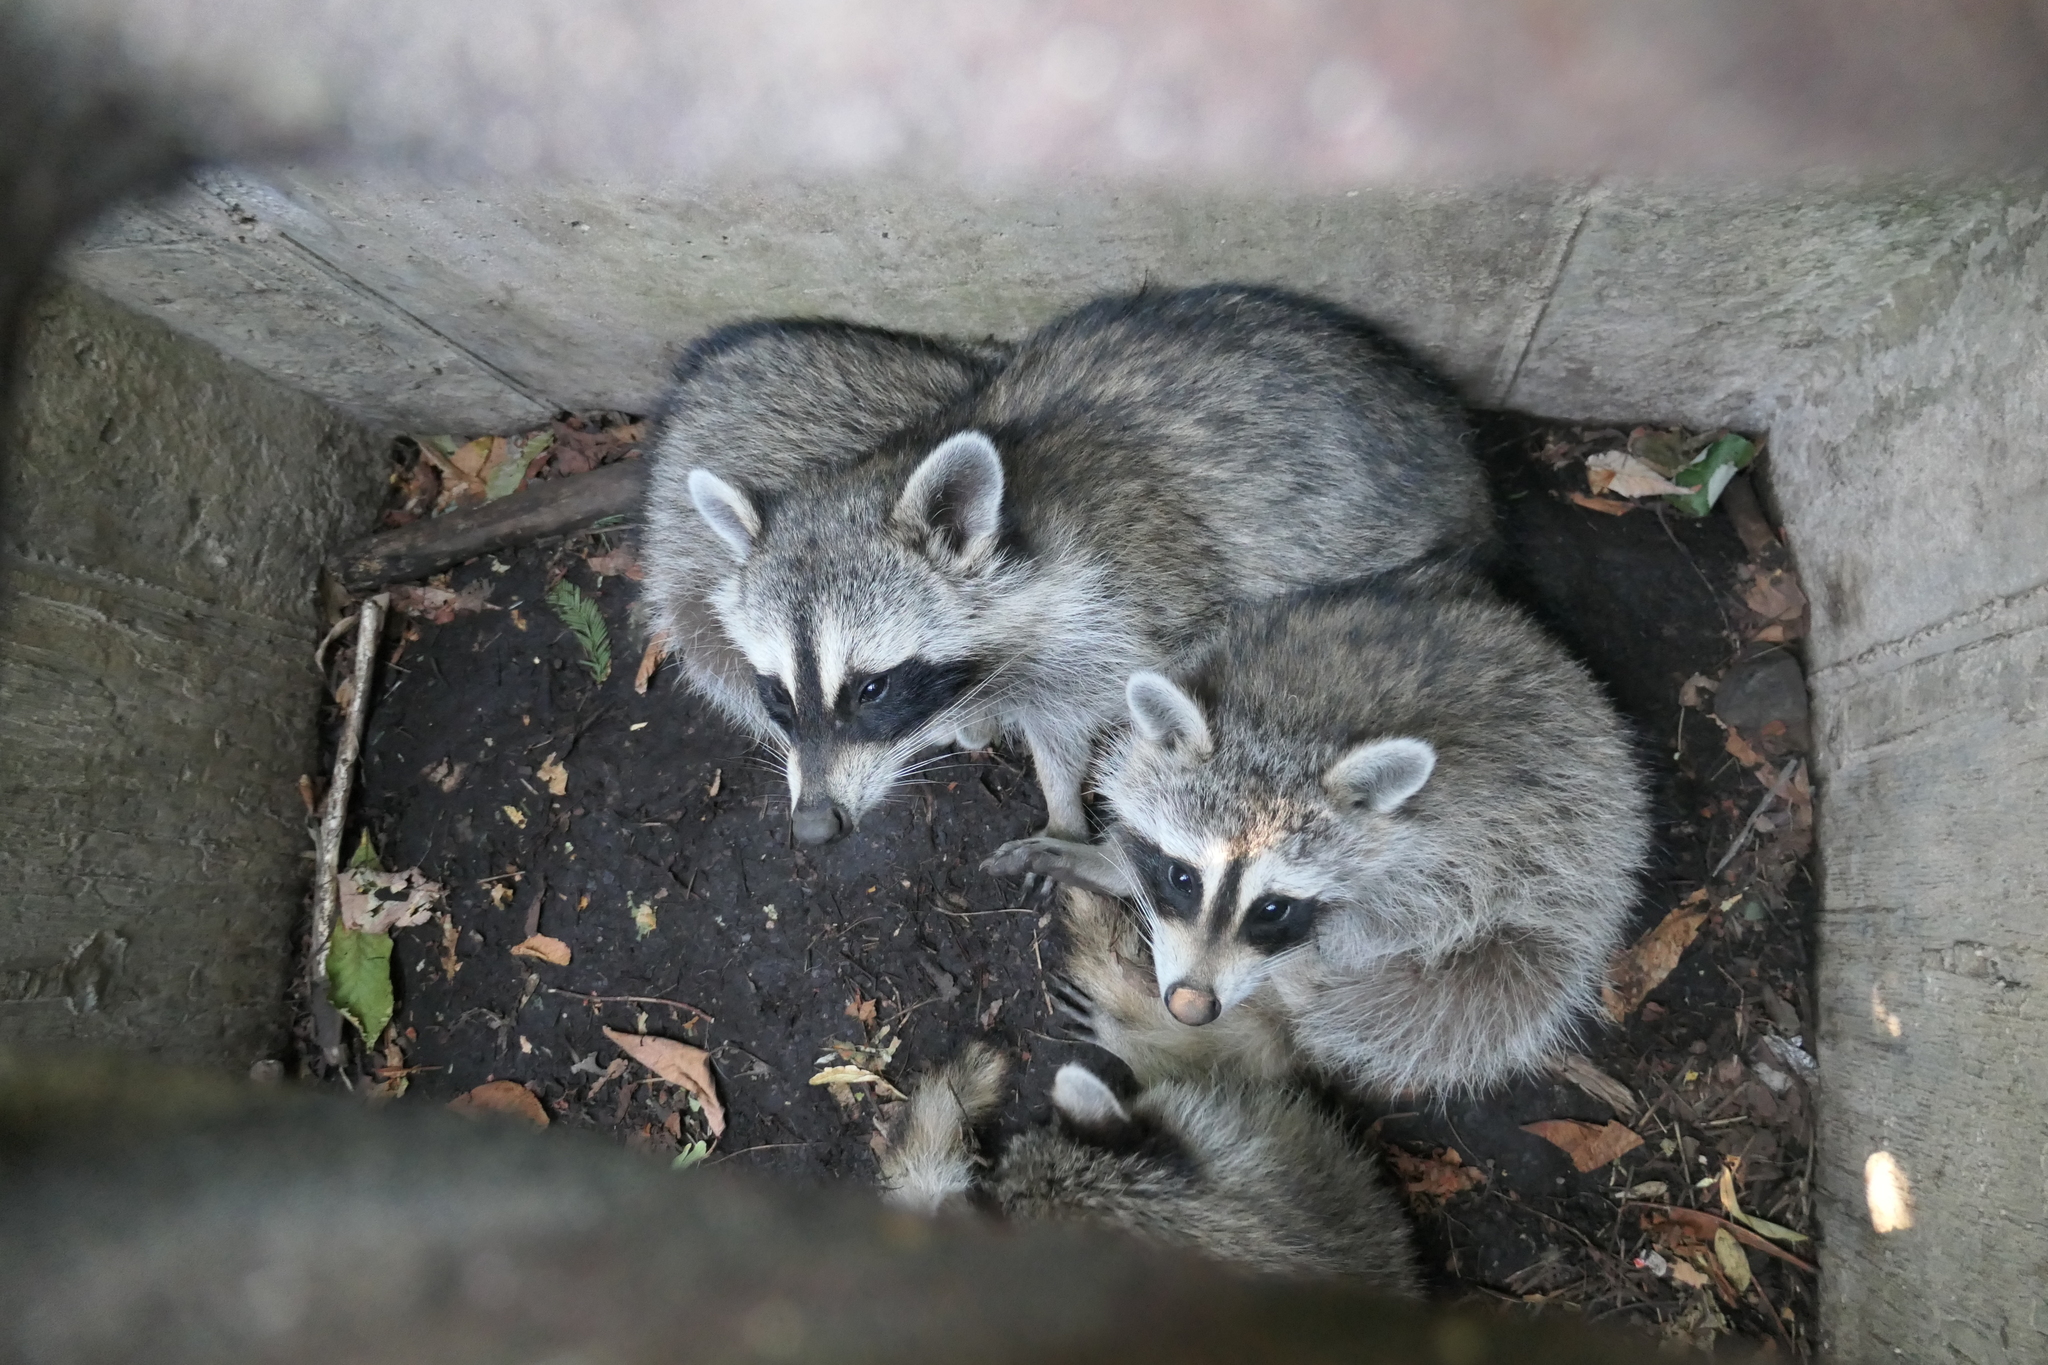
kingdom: Animalia
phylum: Chordata
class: Mammalia
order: Carnivora
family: Procyonidae
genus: Procyon
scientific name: Procyon lotor
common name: Raccoon
